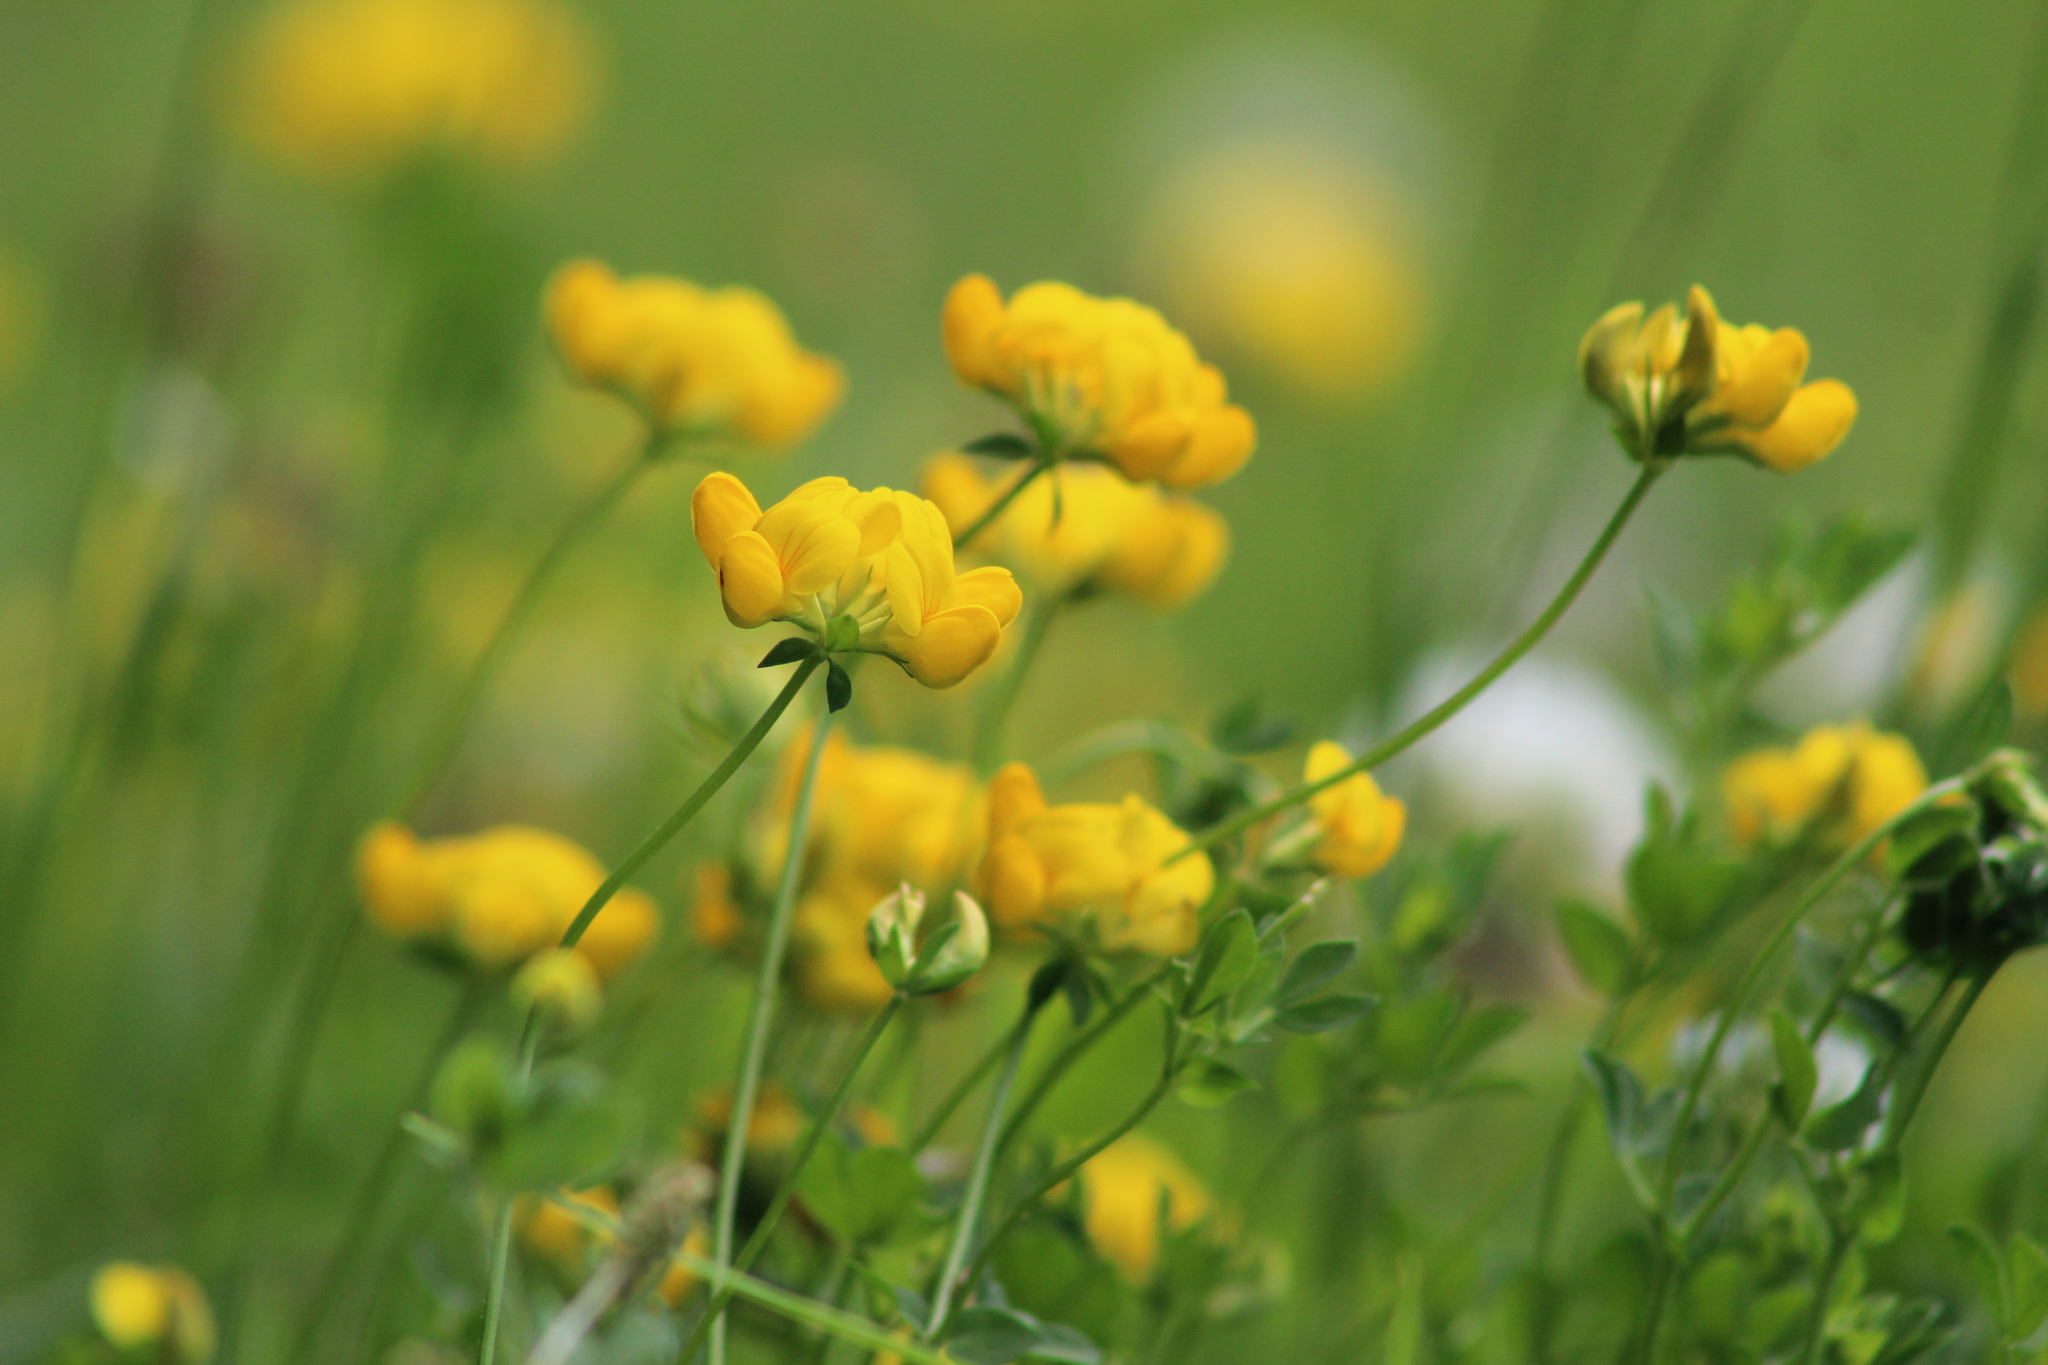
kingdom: Plantae
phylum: Tracheophyta
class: Magnoliopsida
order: Fabales
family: Fabaceae
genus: Lotus
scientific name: Lotus corniculatus
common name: Common bird's-foot-trefoil
